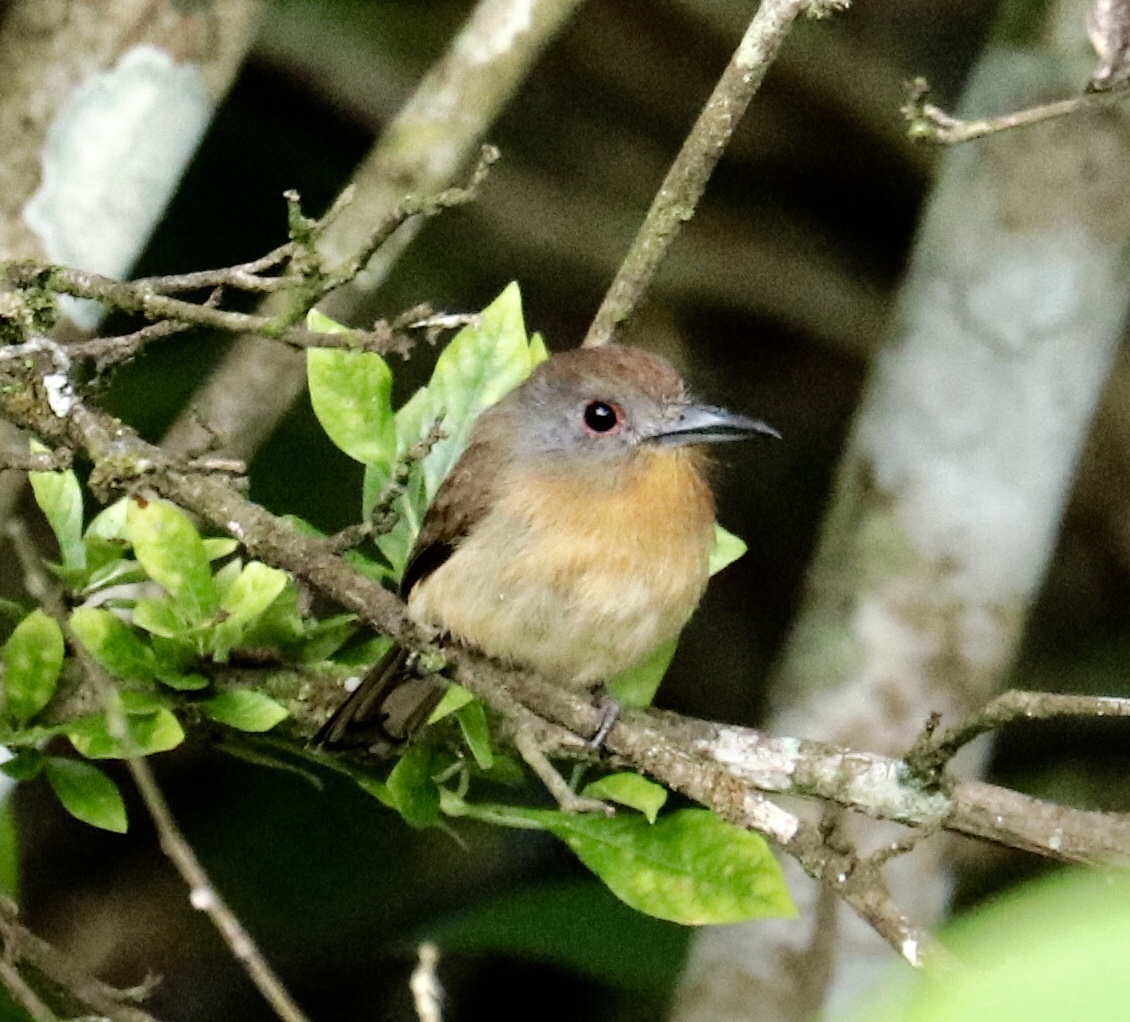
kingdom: Animalia
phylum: Chordata
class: Aves
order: Piciformes
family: Bucconidae
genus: Nonnula
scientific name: Nonnula frontalis
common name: Grey-cheeked nunlet
